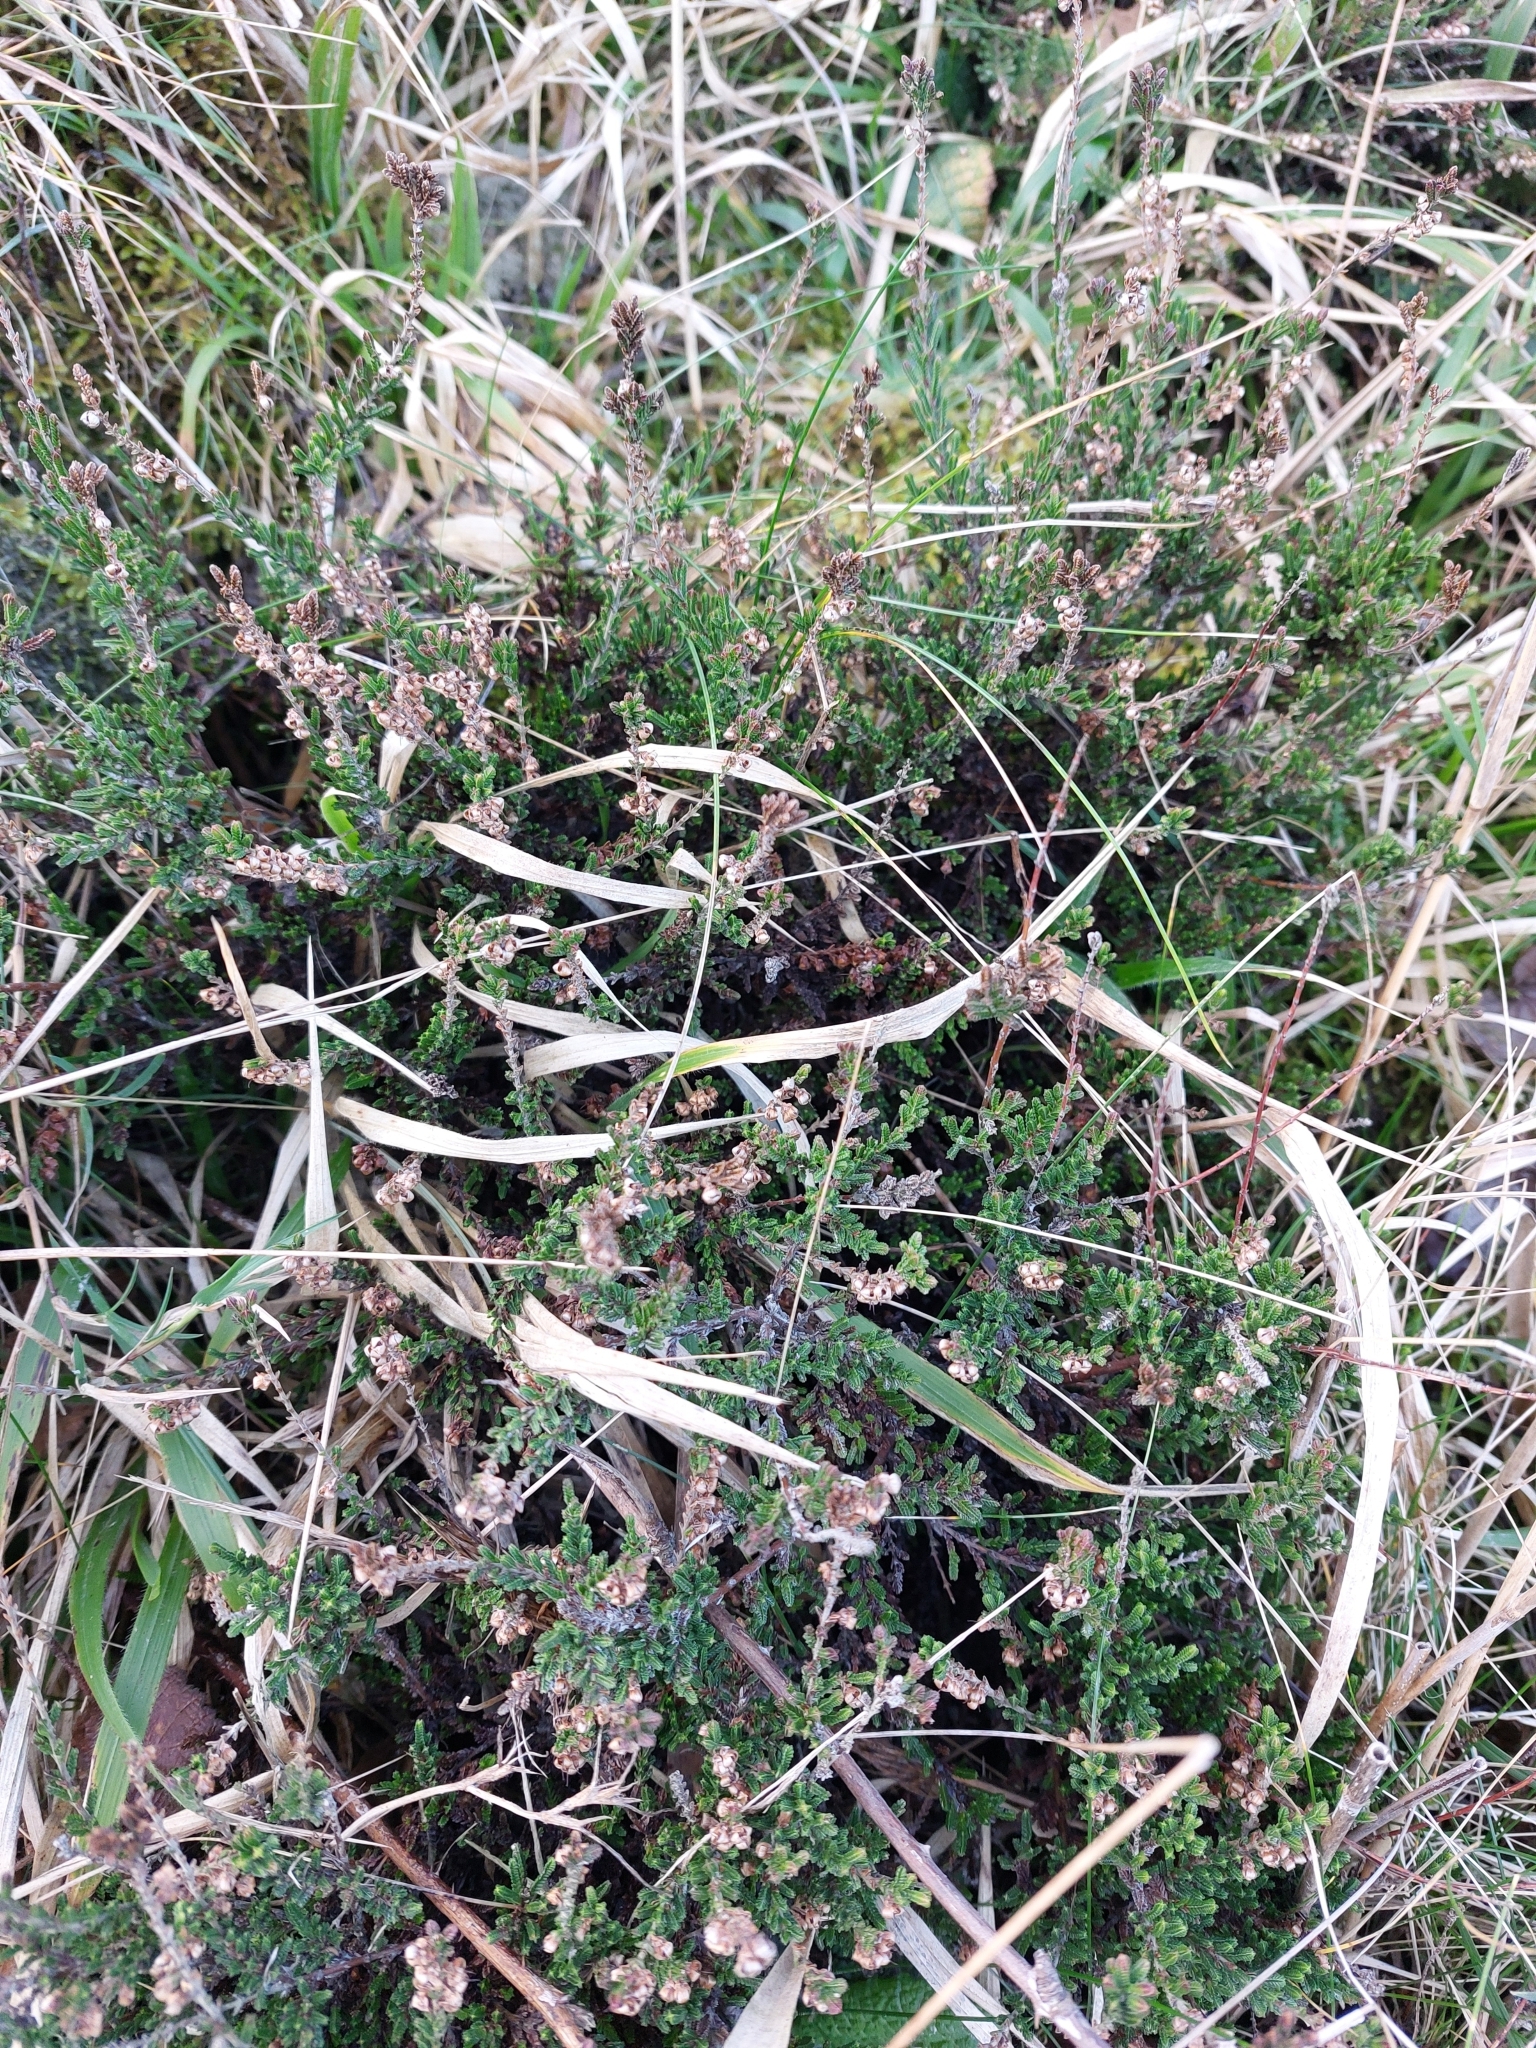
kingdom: Plantae
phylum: Tracheophyta
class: Magnoliopsida
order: Ericales
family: Ericaceae
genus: Calluna
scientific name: Calluna vulgaris
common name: Heather
